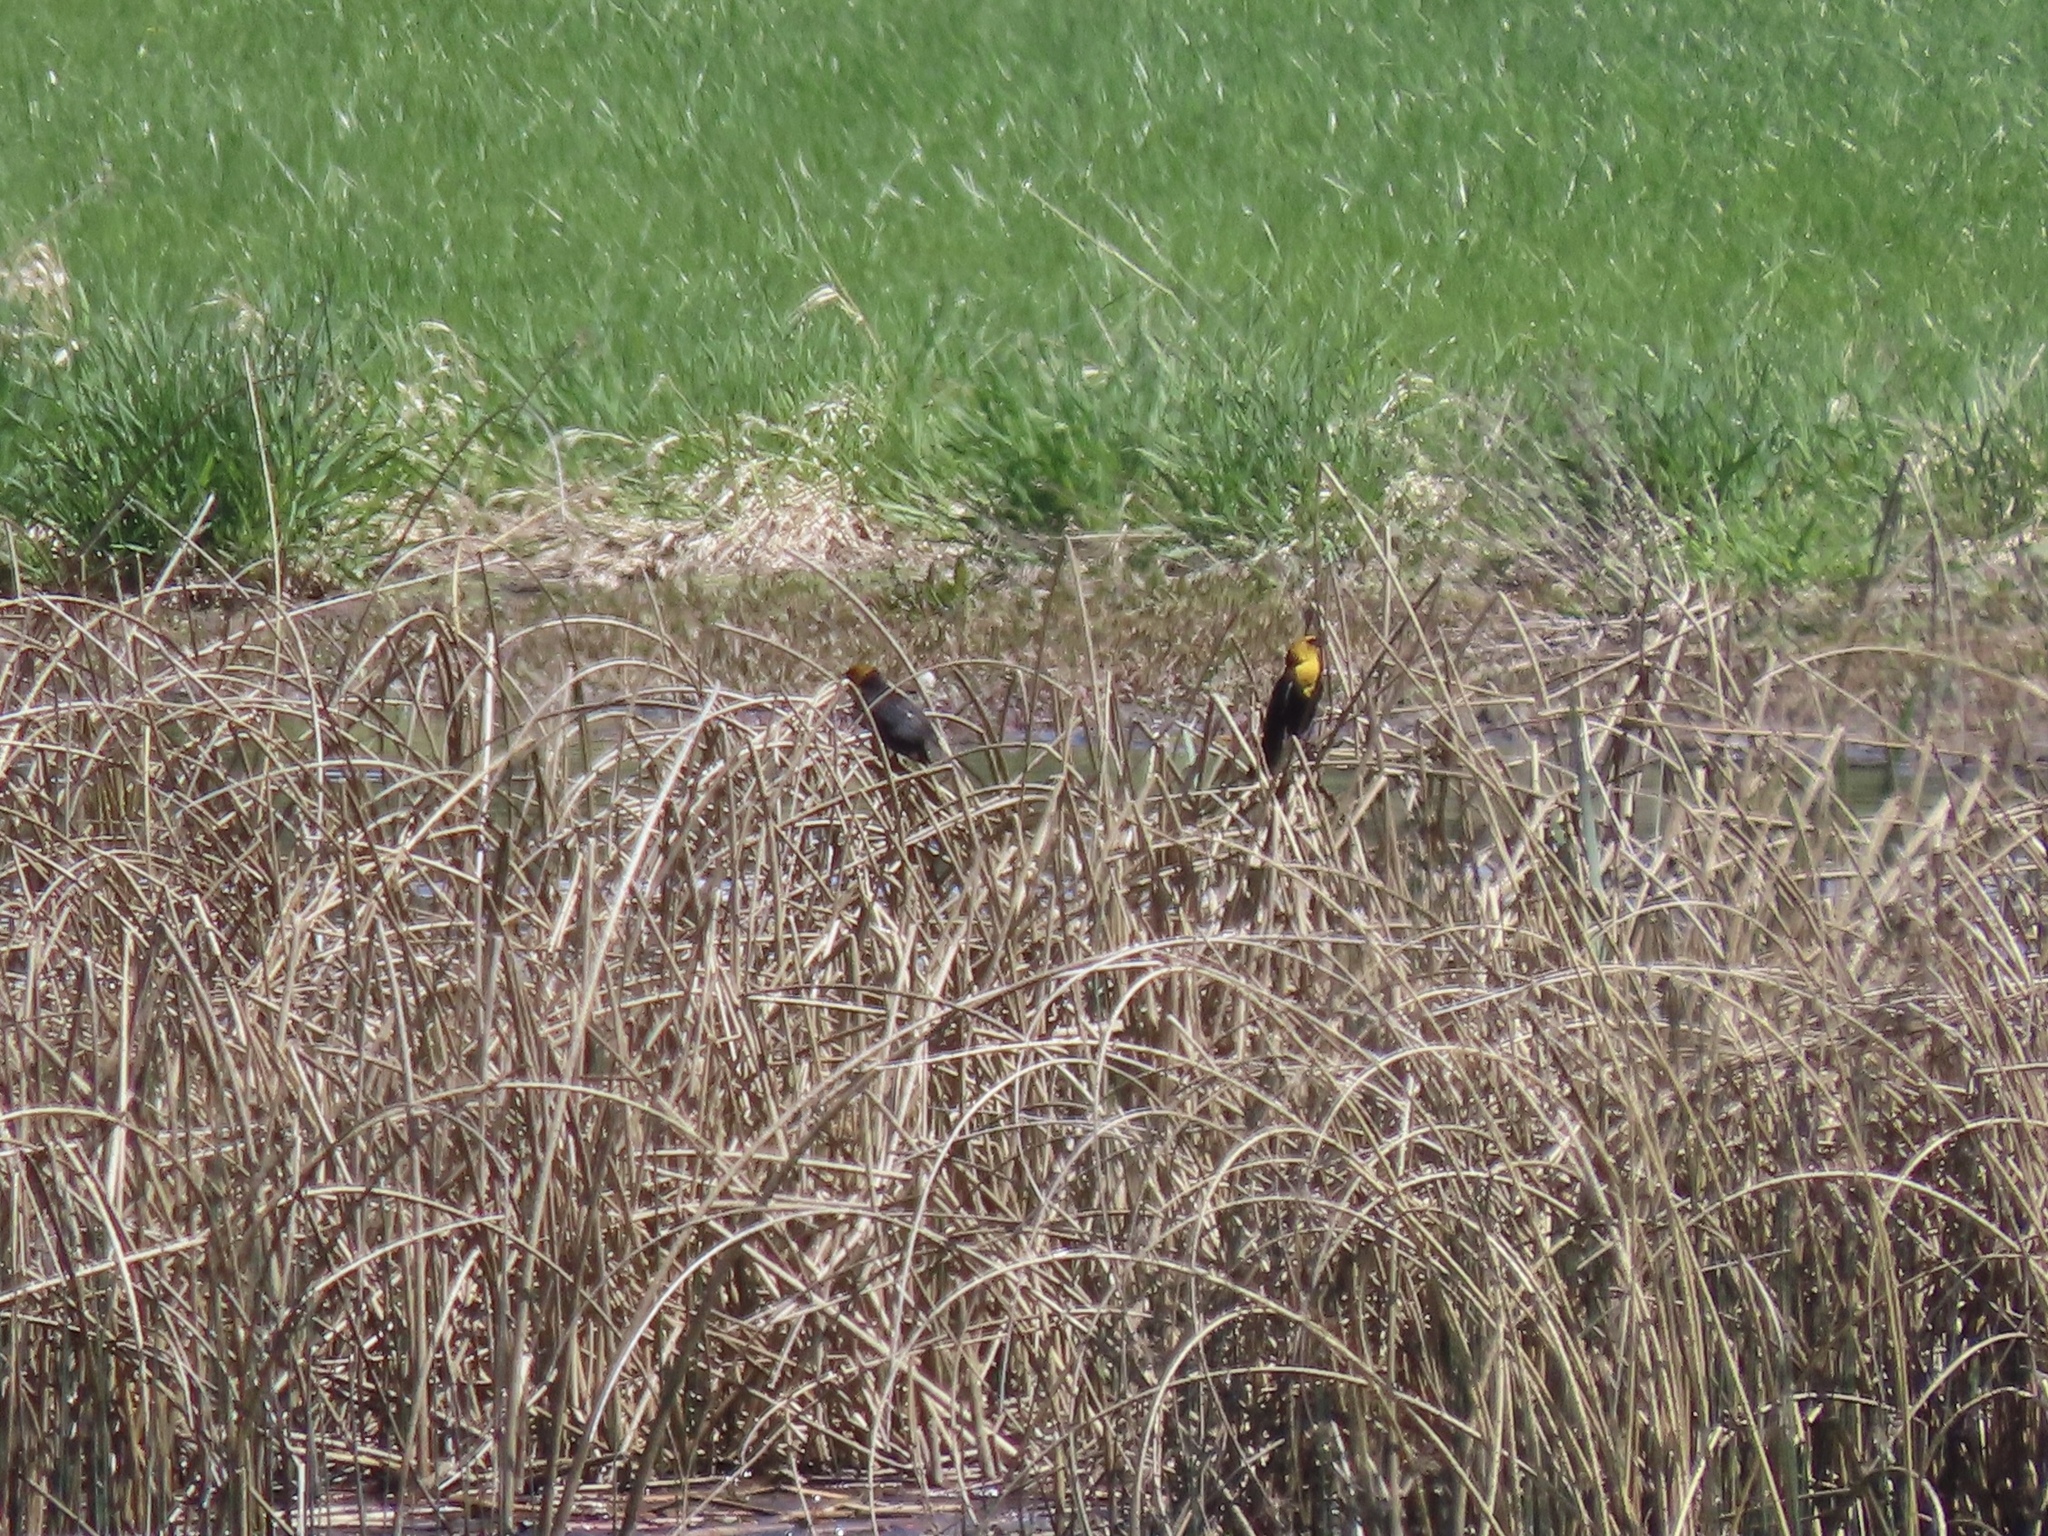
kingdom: Animalia
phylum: Chordata
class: Aves
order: Passeriformes
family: Icteridae
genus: Xanthocephalus
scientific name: Xanthocephalus xanthocephalus
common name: Yellow-headed blackbird
